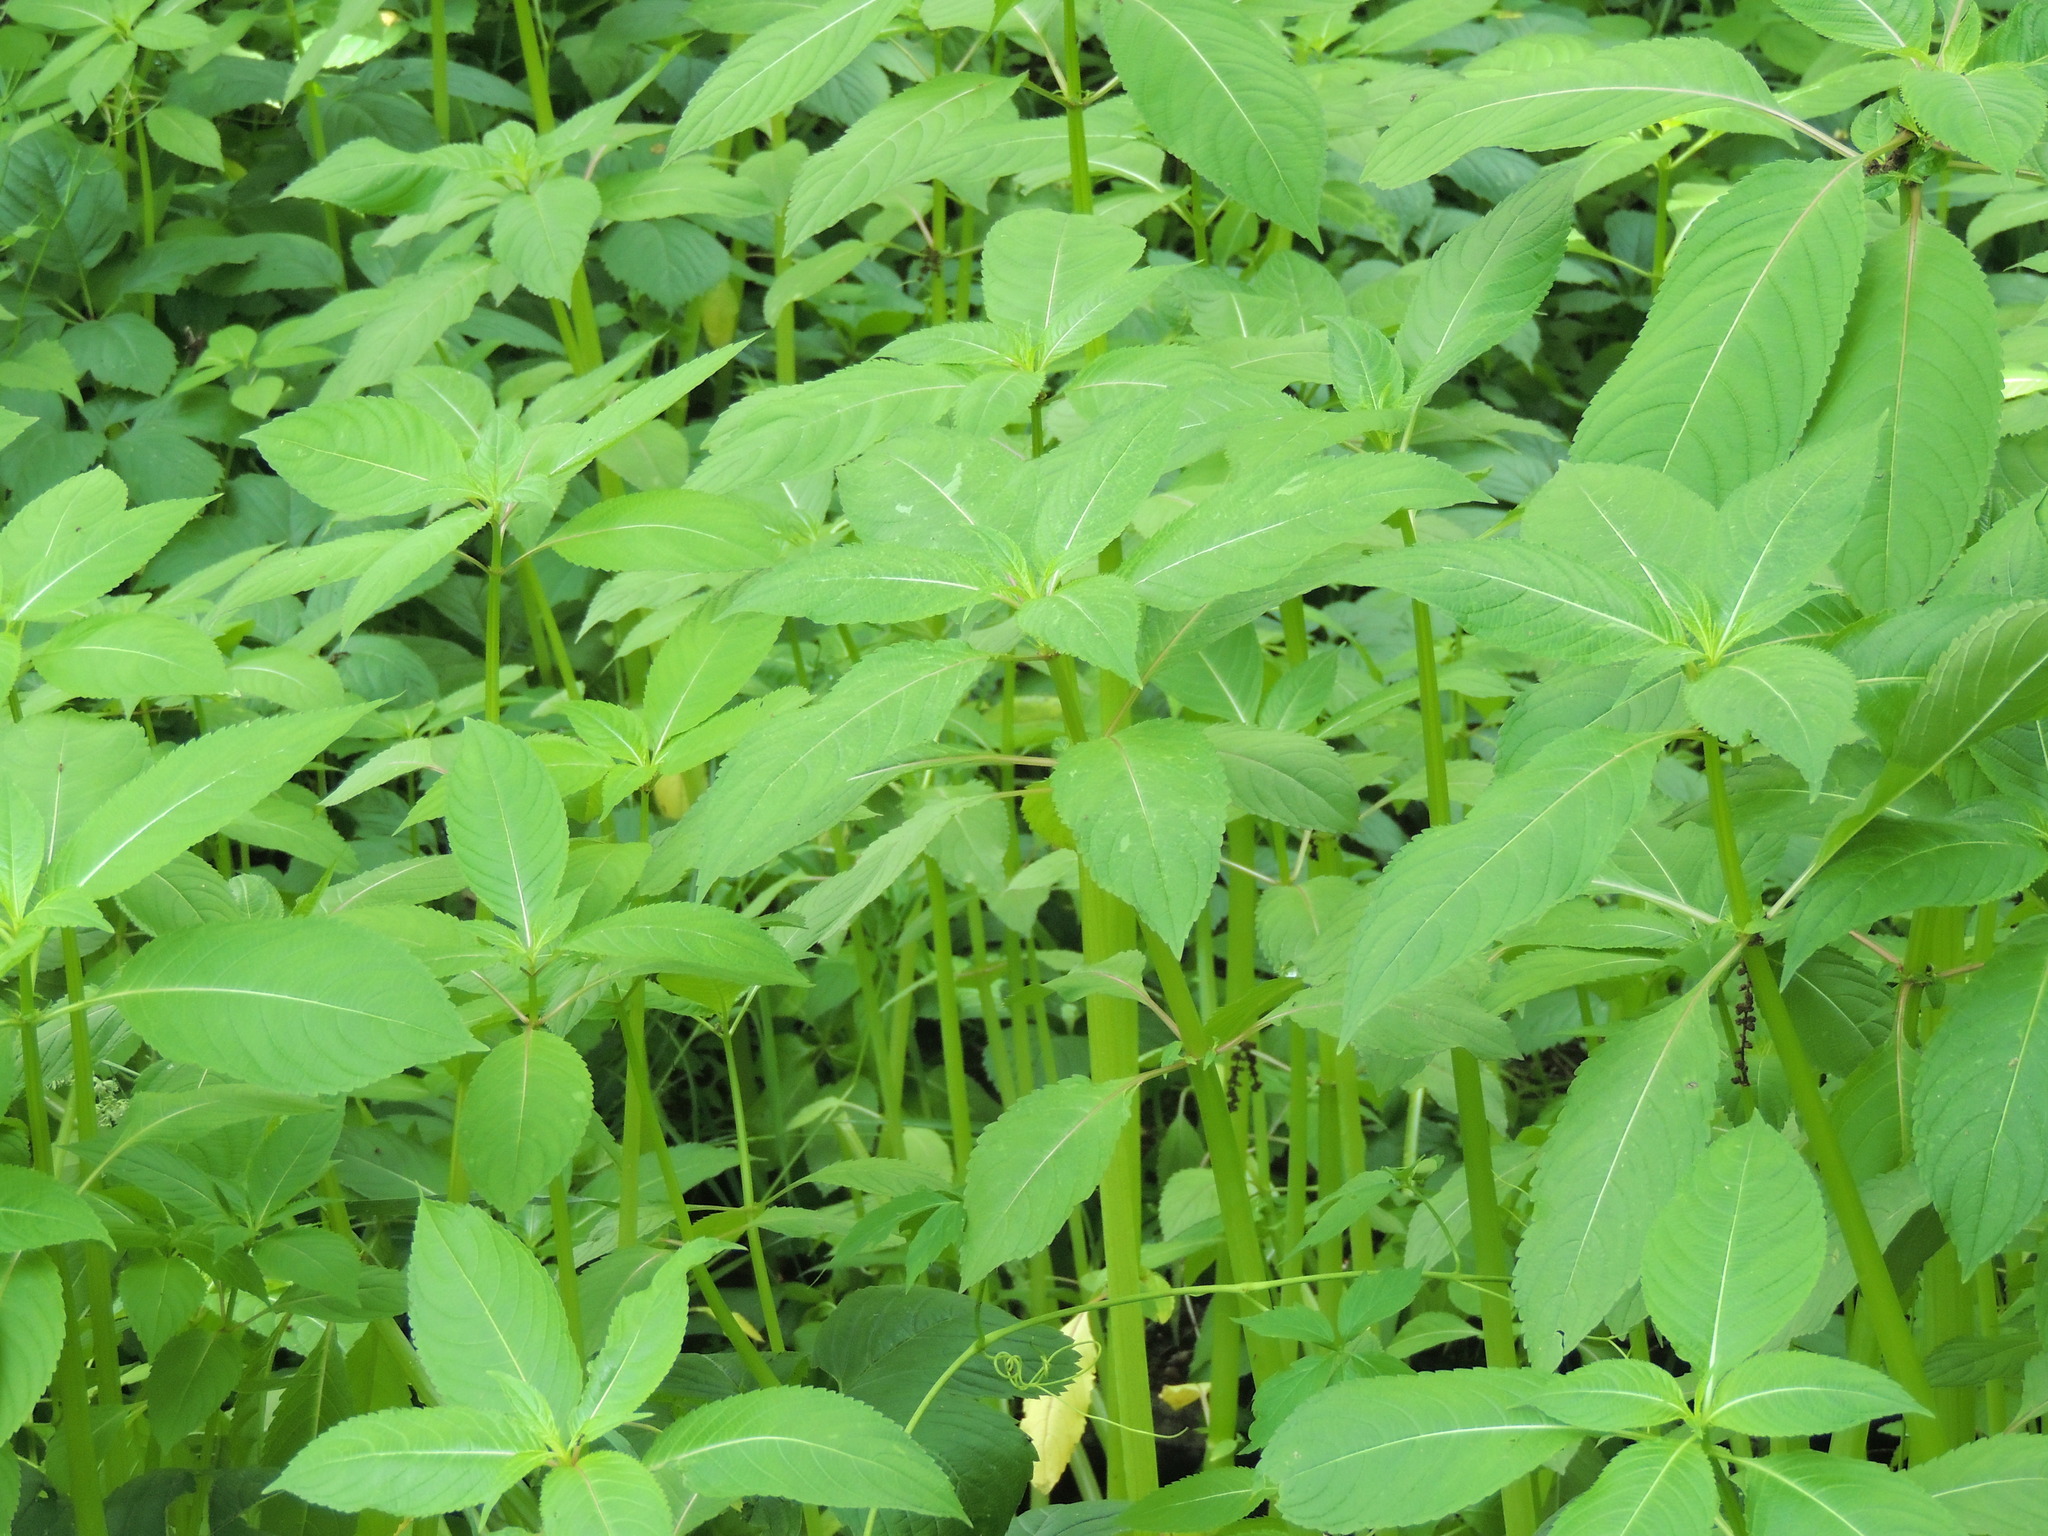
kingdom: Plantae
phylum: Tracheophyta
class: Magnoliopsida
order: Ericales
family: Balsaminaceae
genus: Impatiens
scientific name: Impatiens glandulifera
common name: Himalayan balsam
